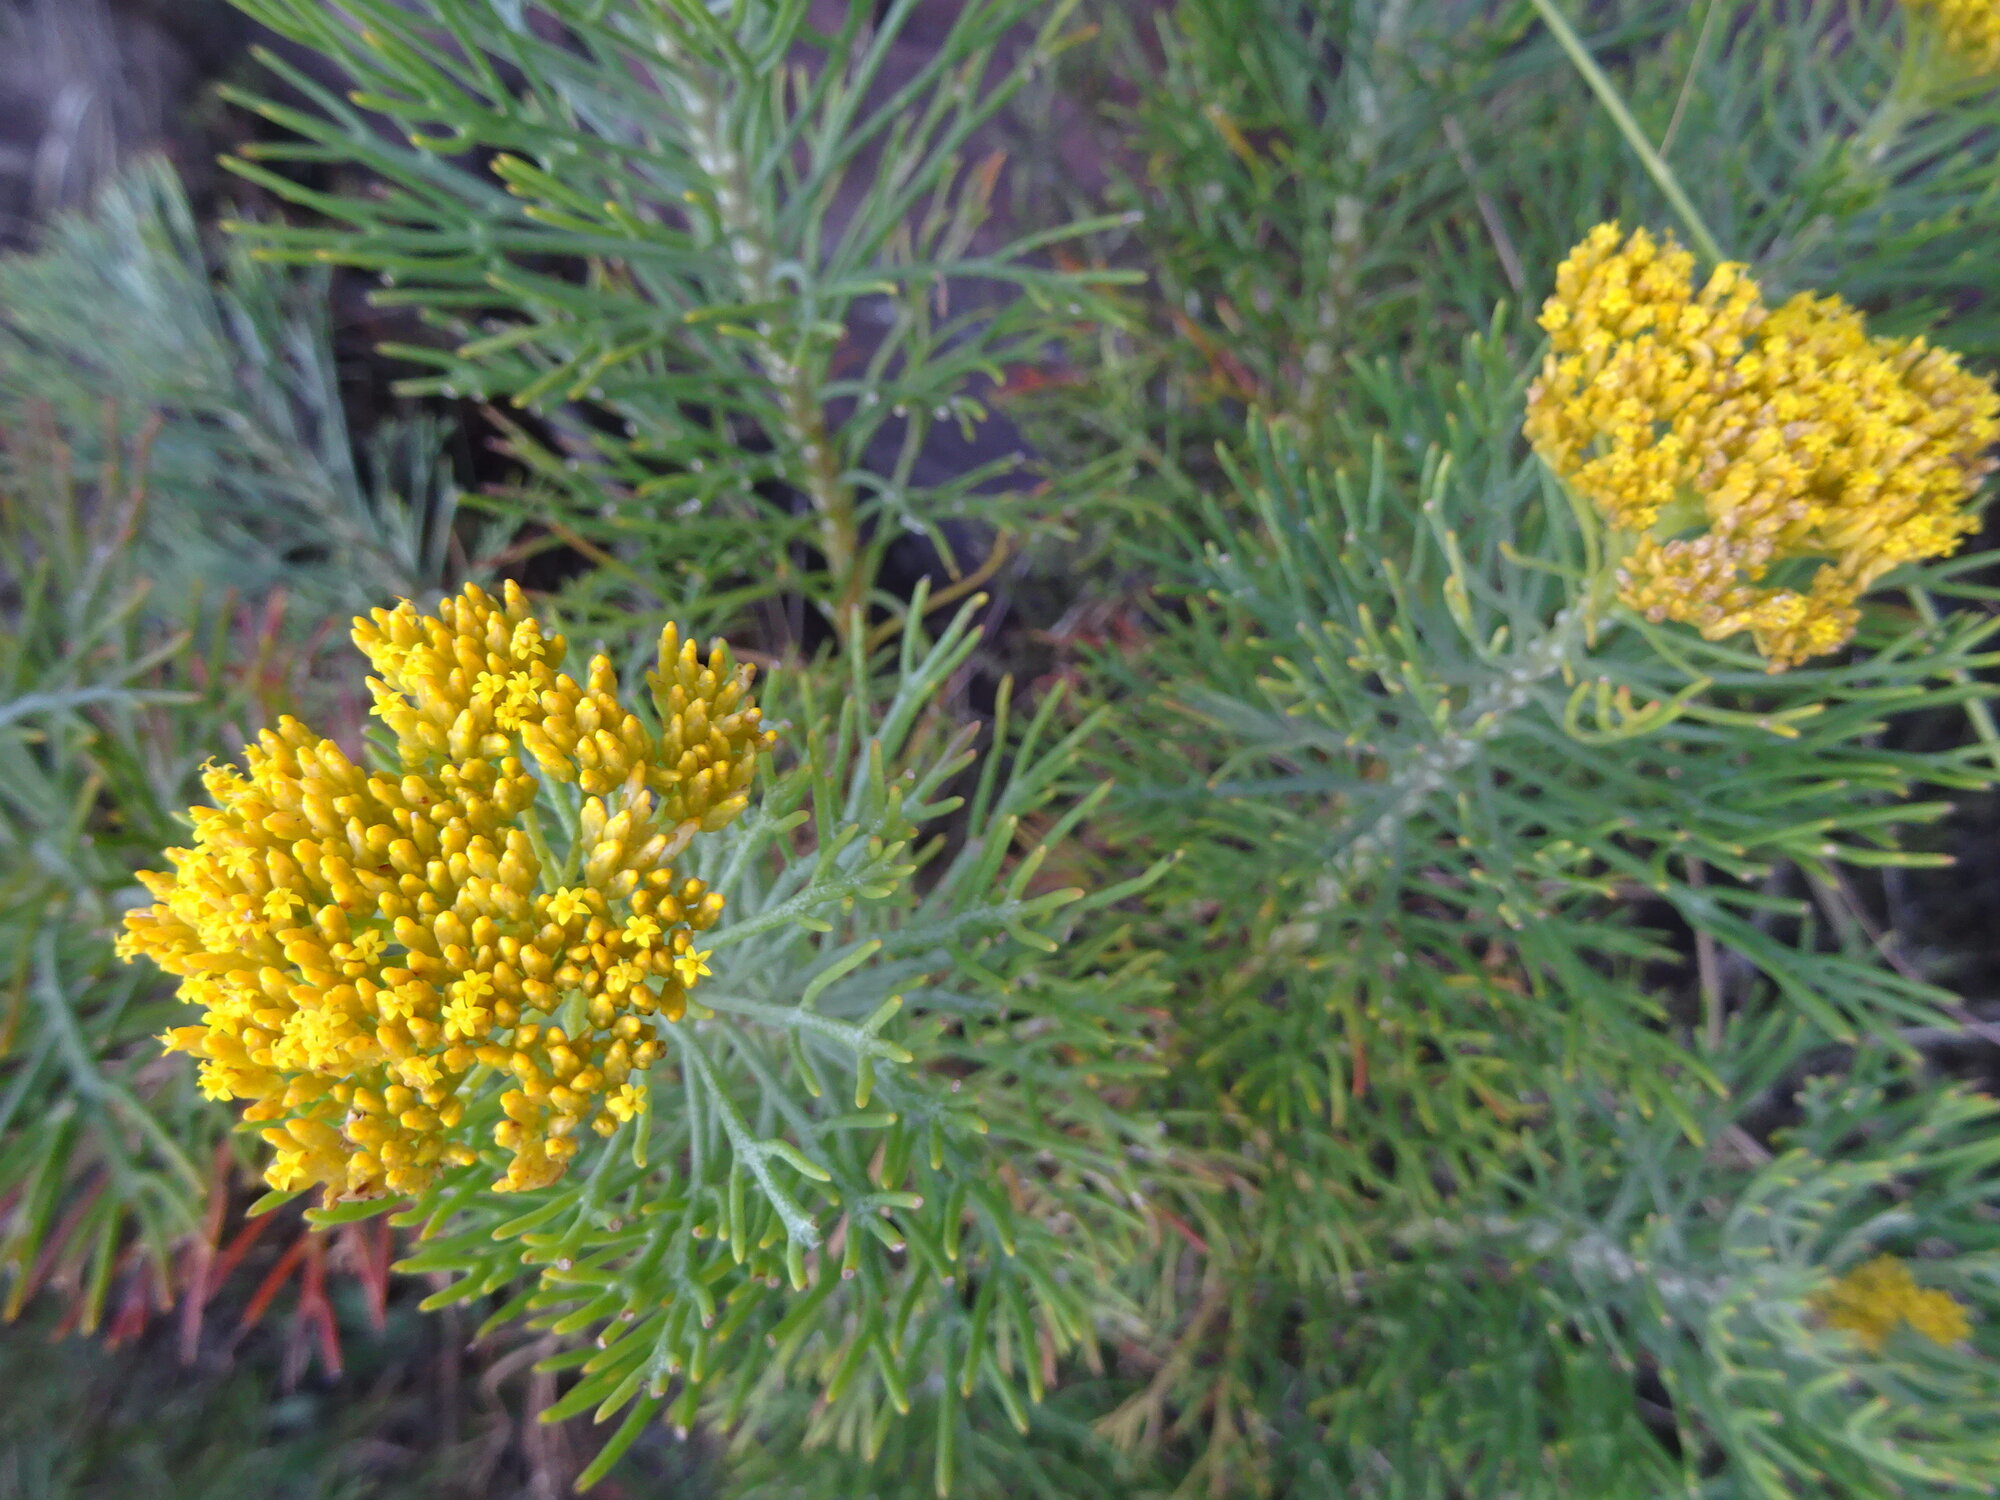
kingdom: Plantae
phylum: Tracheophyta
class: Magnoliopsida
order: Asterales
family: Asteraceae
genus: Hymenolepis
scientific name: Hymenolepis crithmifolia
